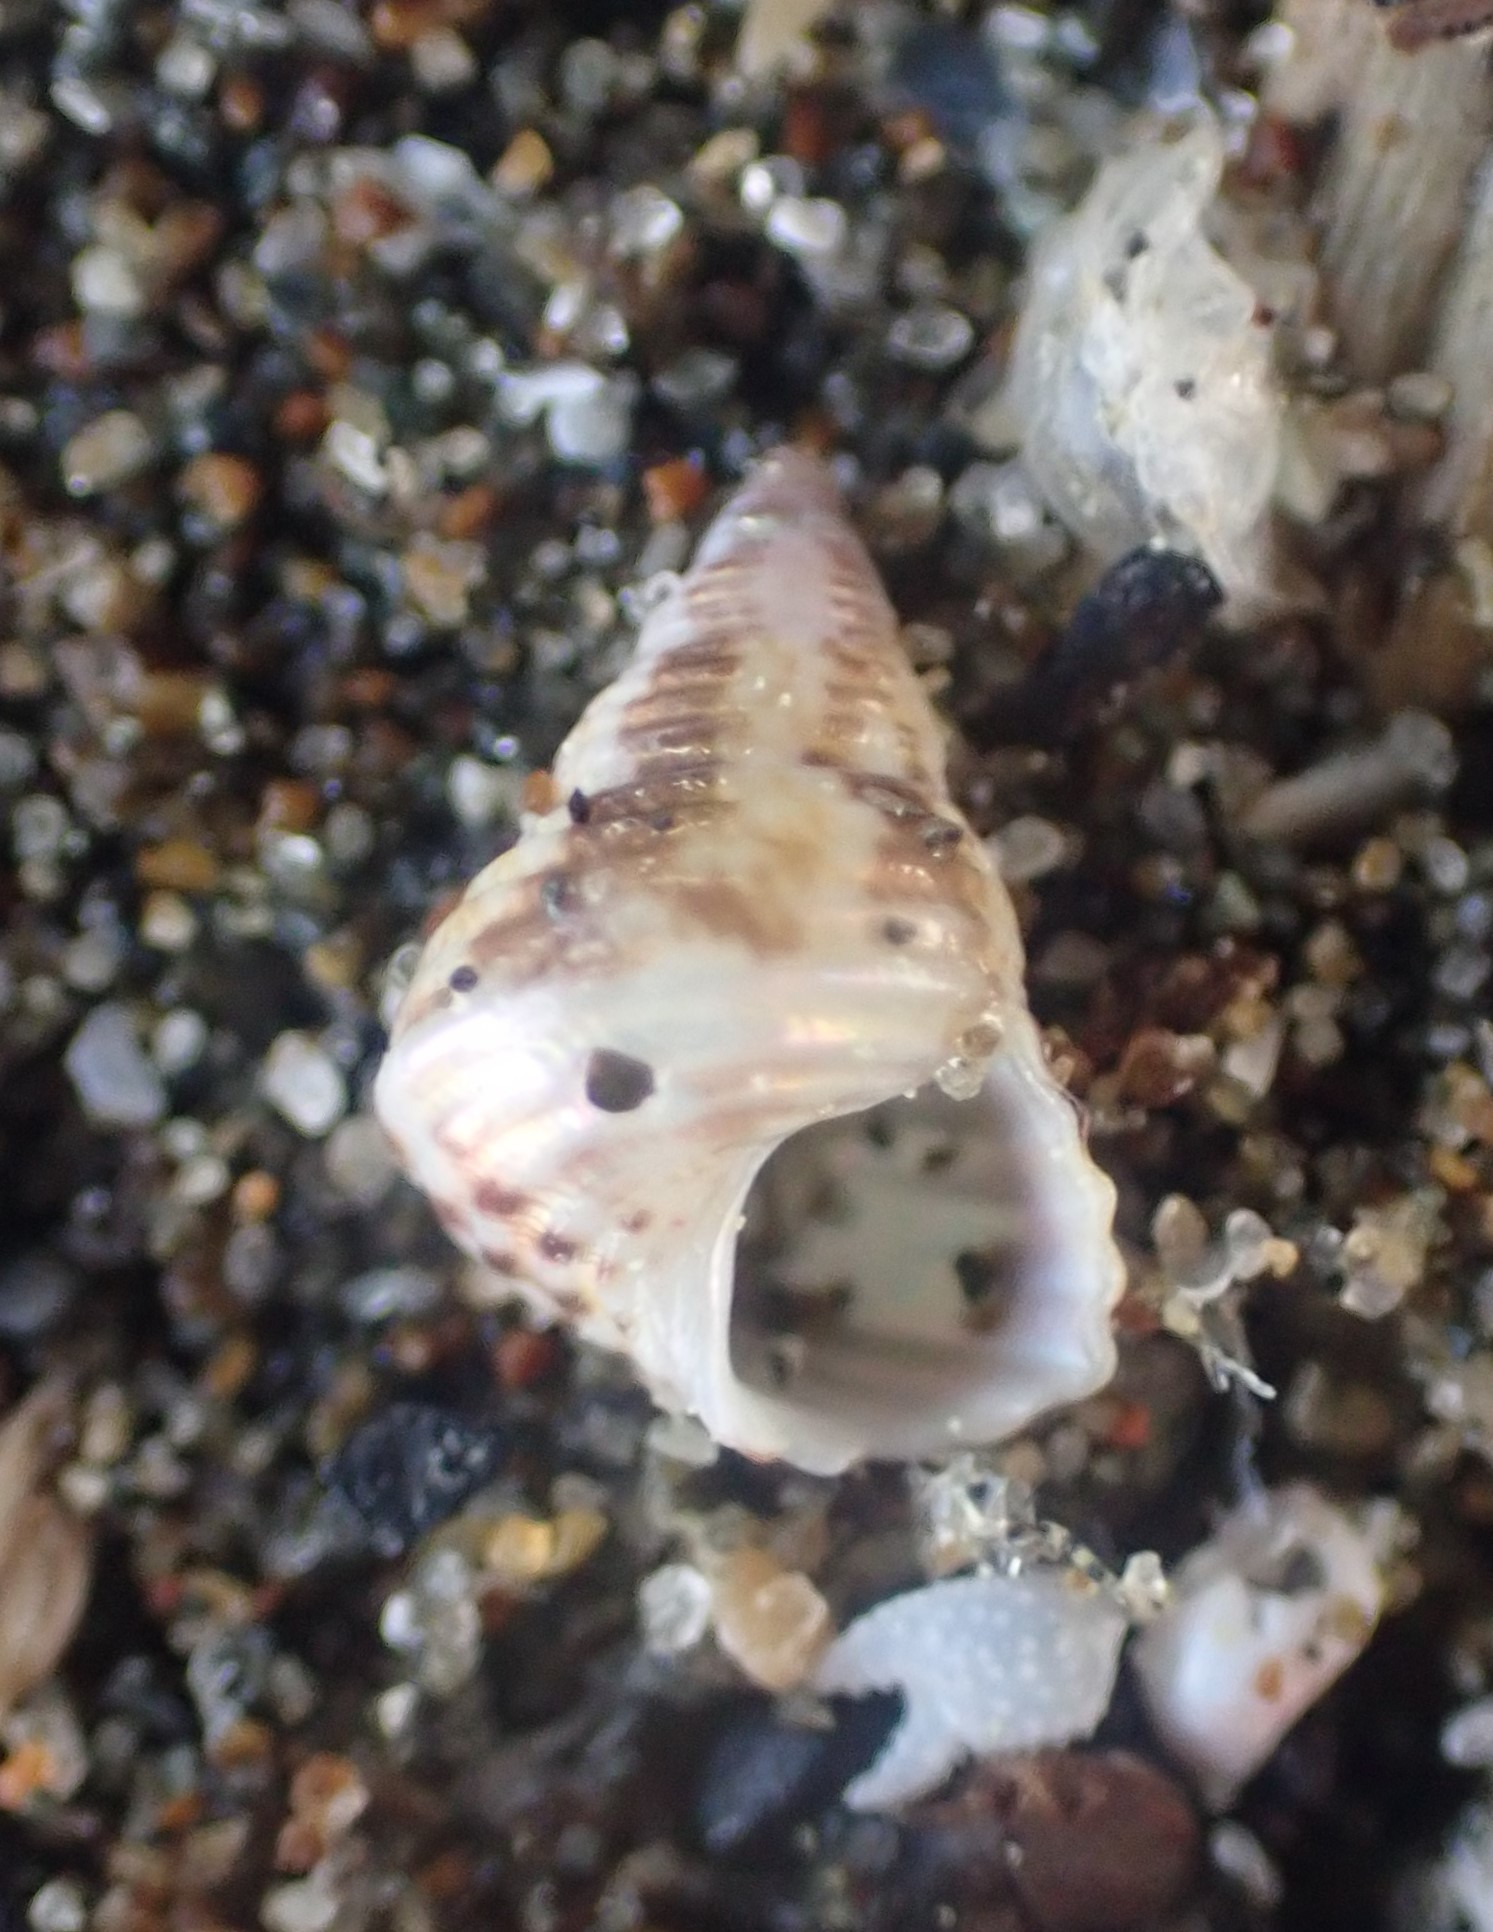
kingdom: Animalia
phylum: Mollusca
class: Gastropoda
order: Trochida
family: Trochidae
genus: Micrelenchus
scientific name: Micrelenchus purpureus
